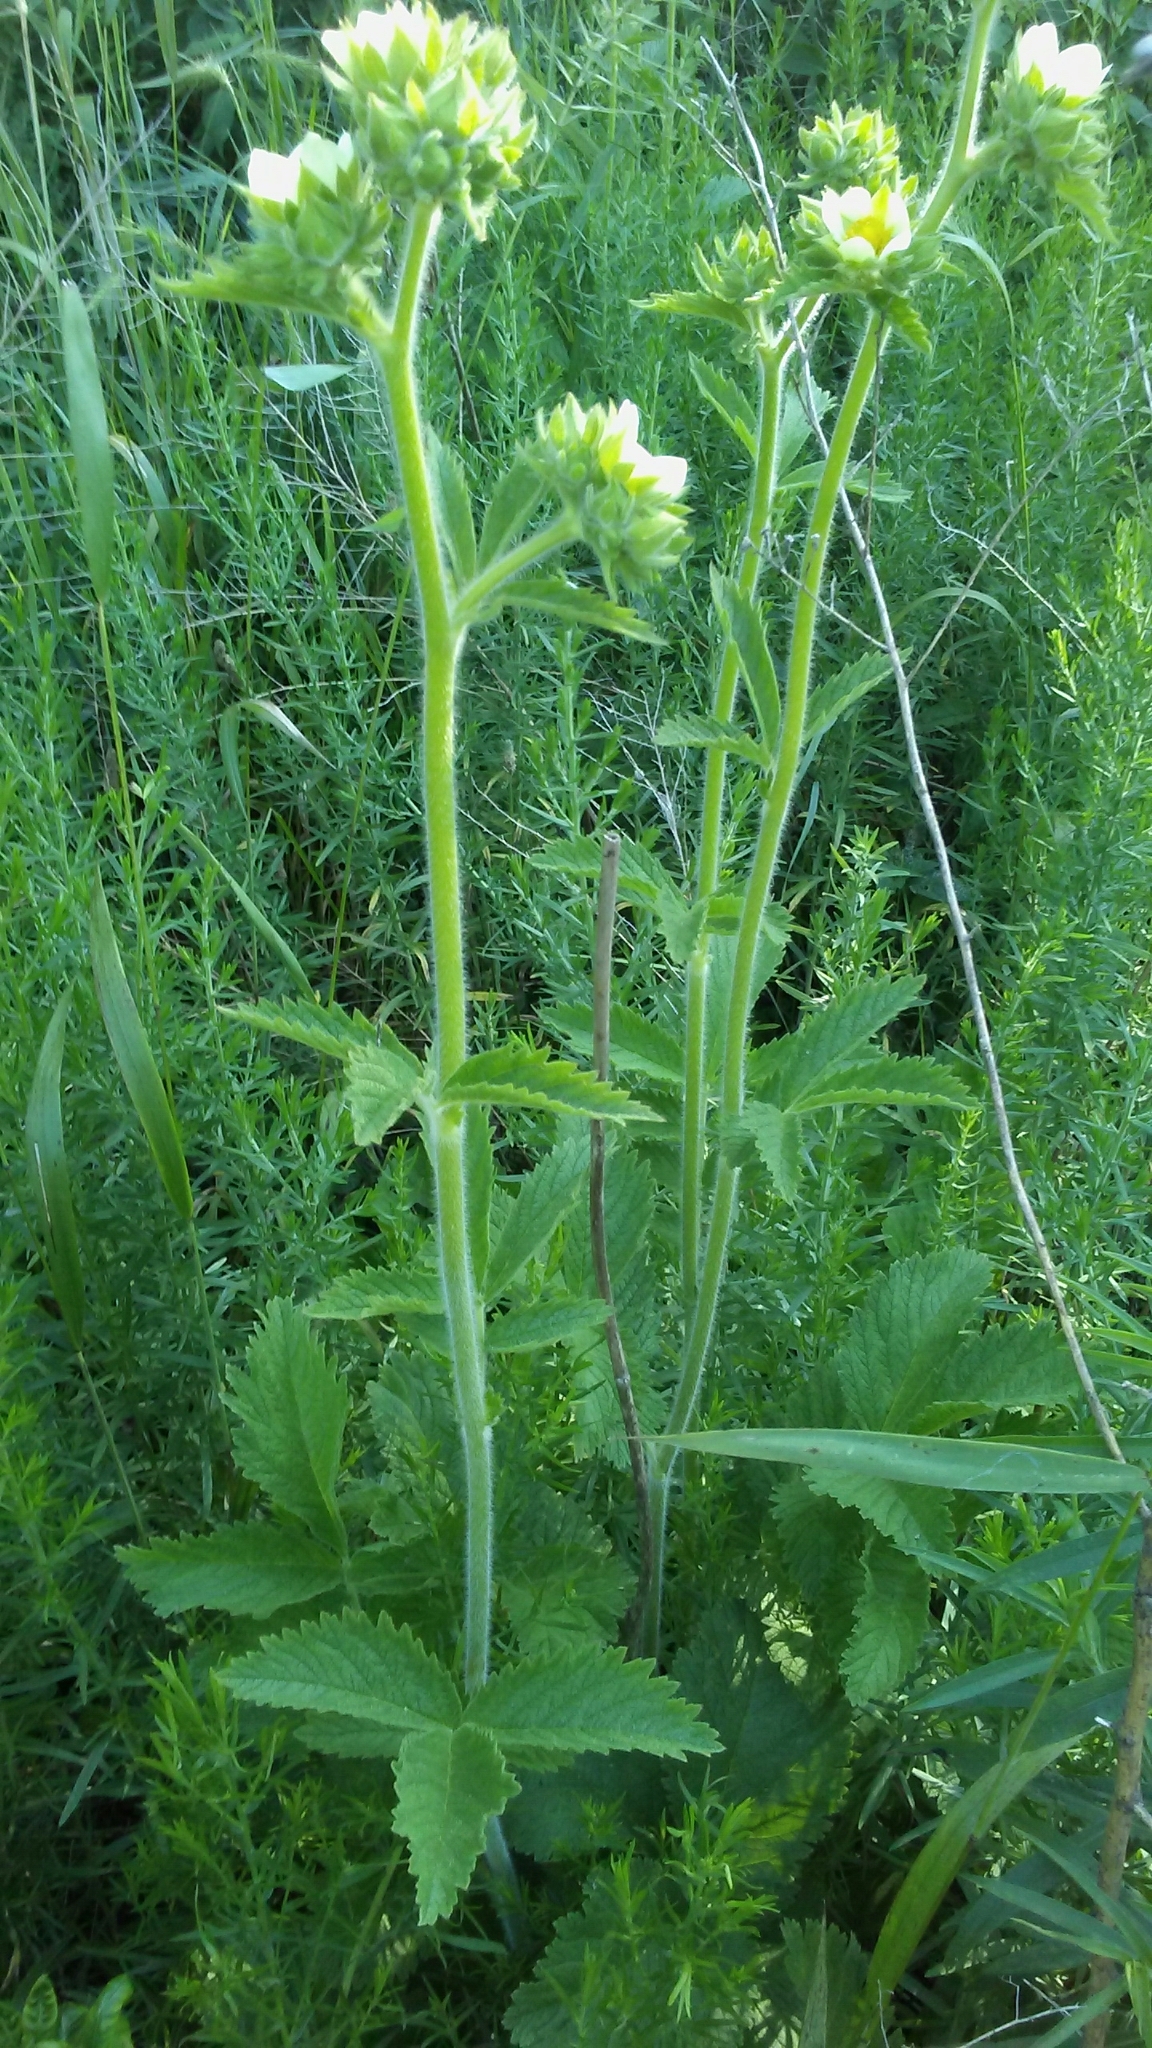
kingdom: Plantae
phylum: Tracheophyta
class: Magnoliopsida
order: Rosales
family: Rosaceae
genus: Drymocallis
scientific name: Drymocallis arguta
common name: Tall cinquefoil
